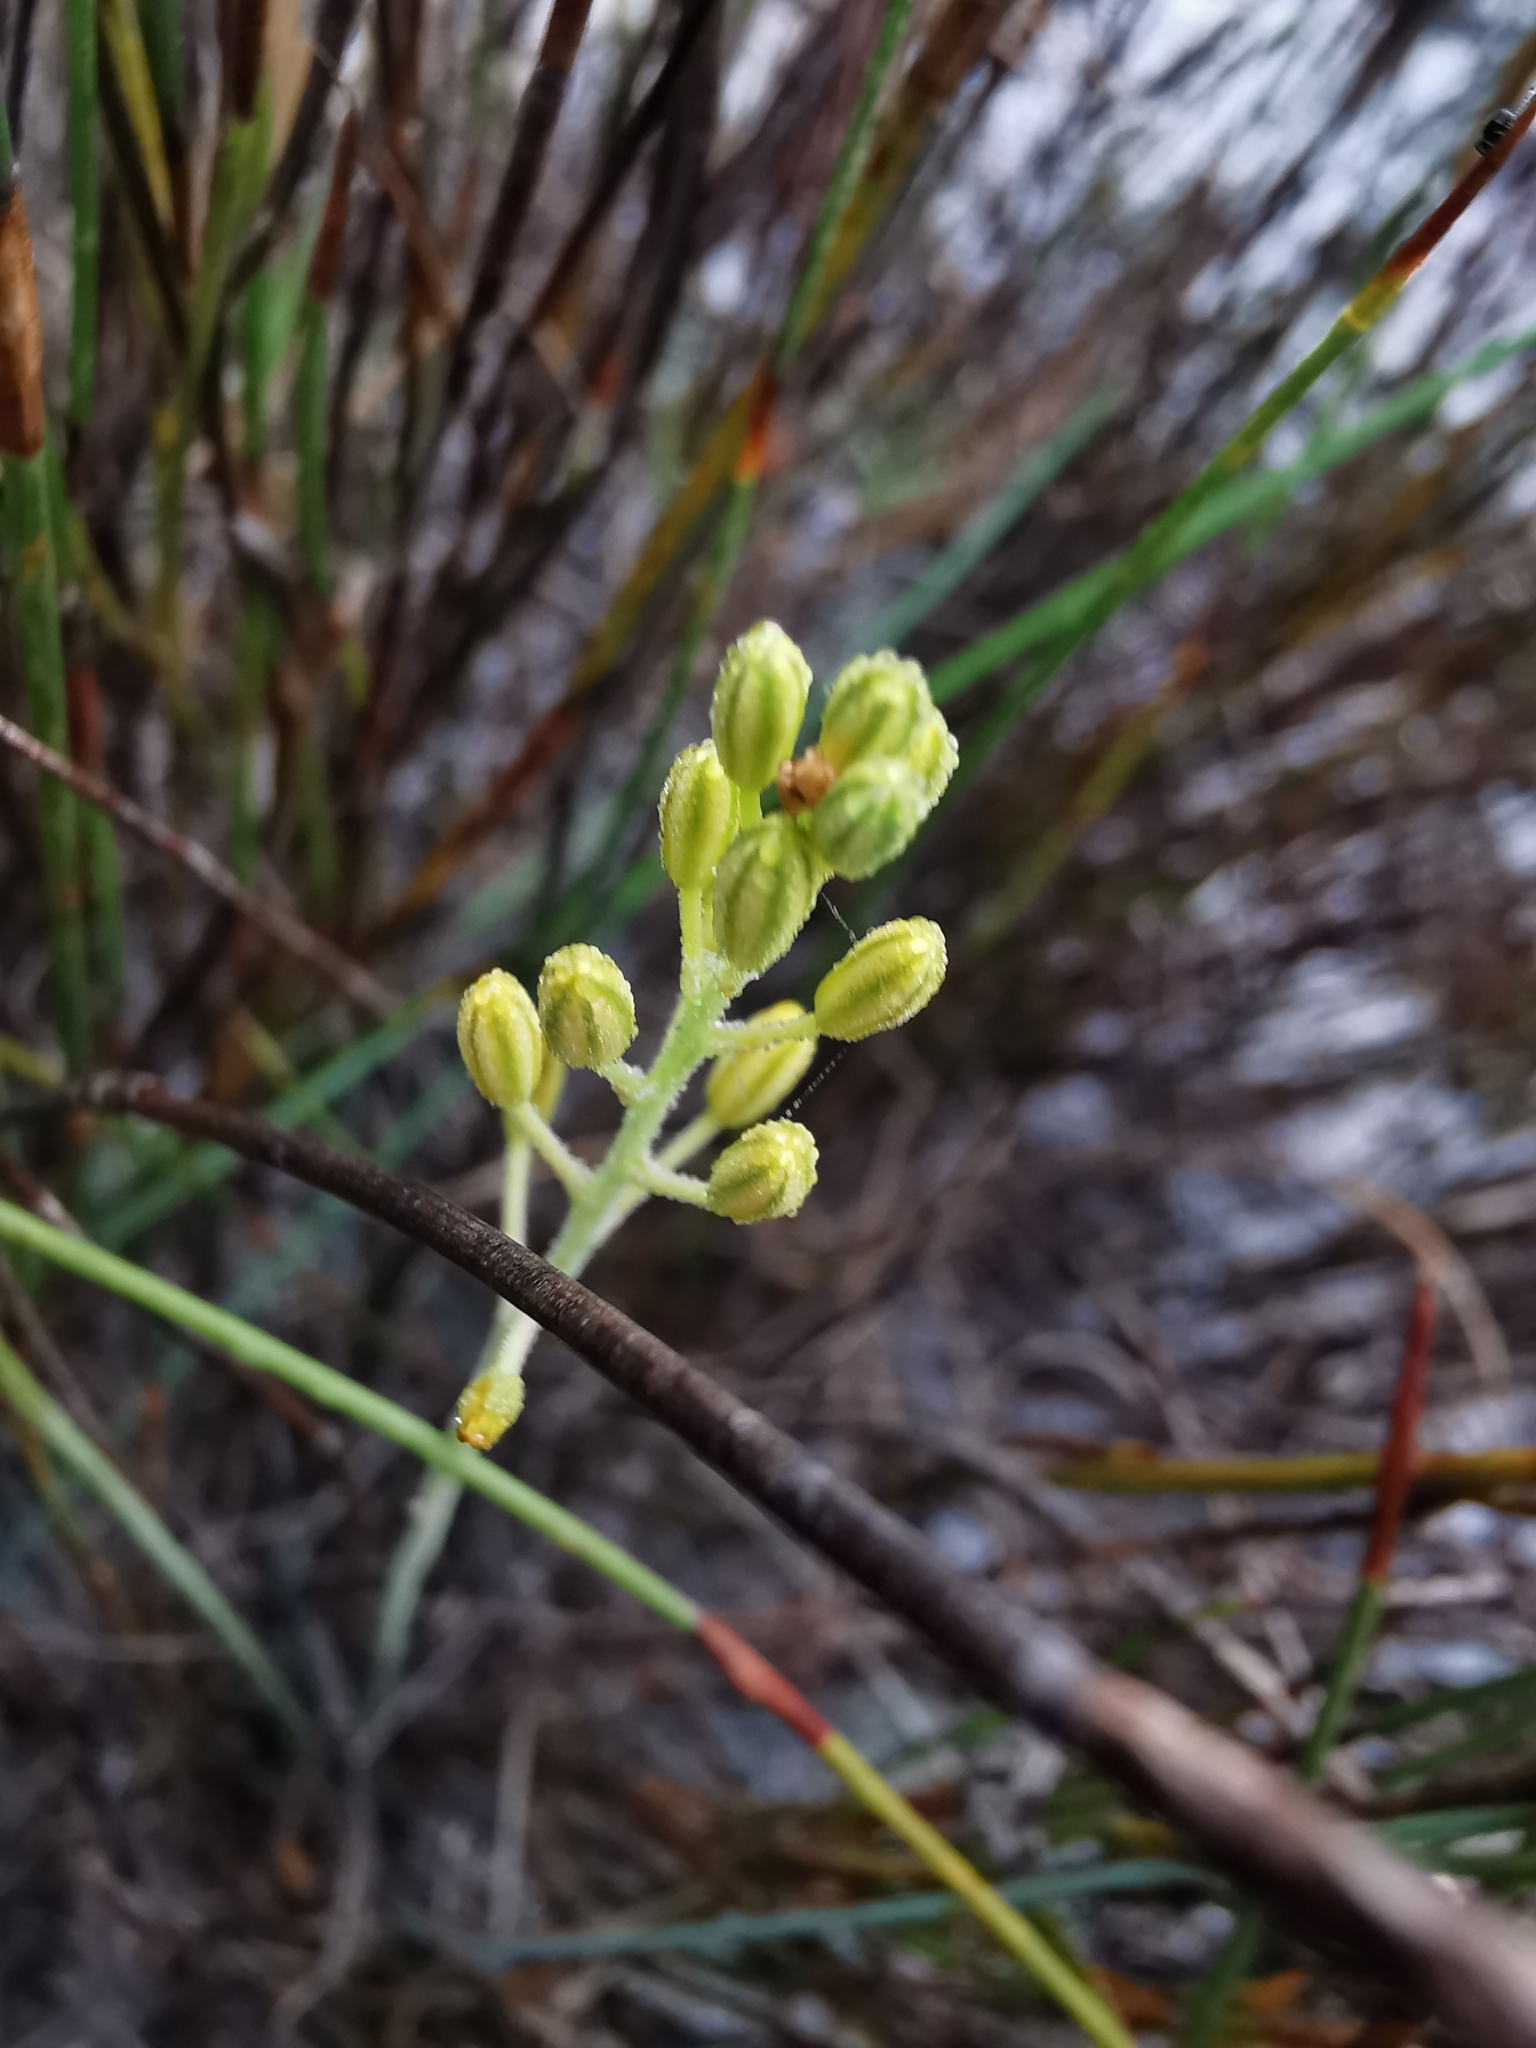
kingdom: Plantae
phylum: Tracheophyta
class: Liliopsida
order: Asparagales
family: Asphodelaceae
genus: Bulbine
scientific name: Bulbine favosa
